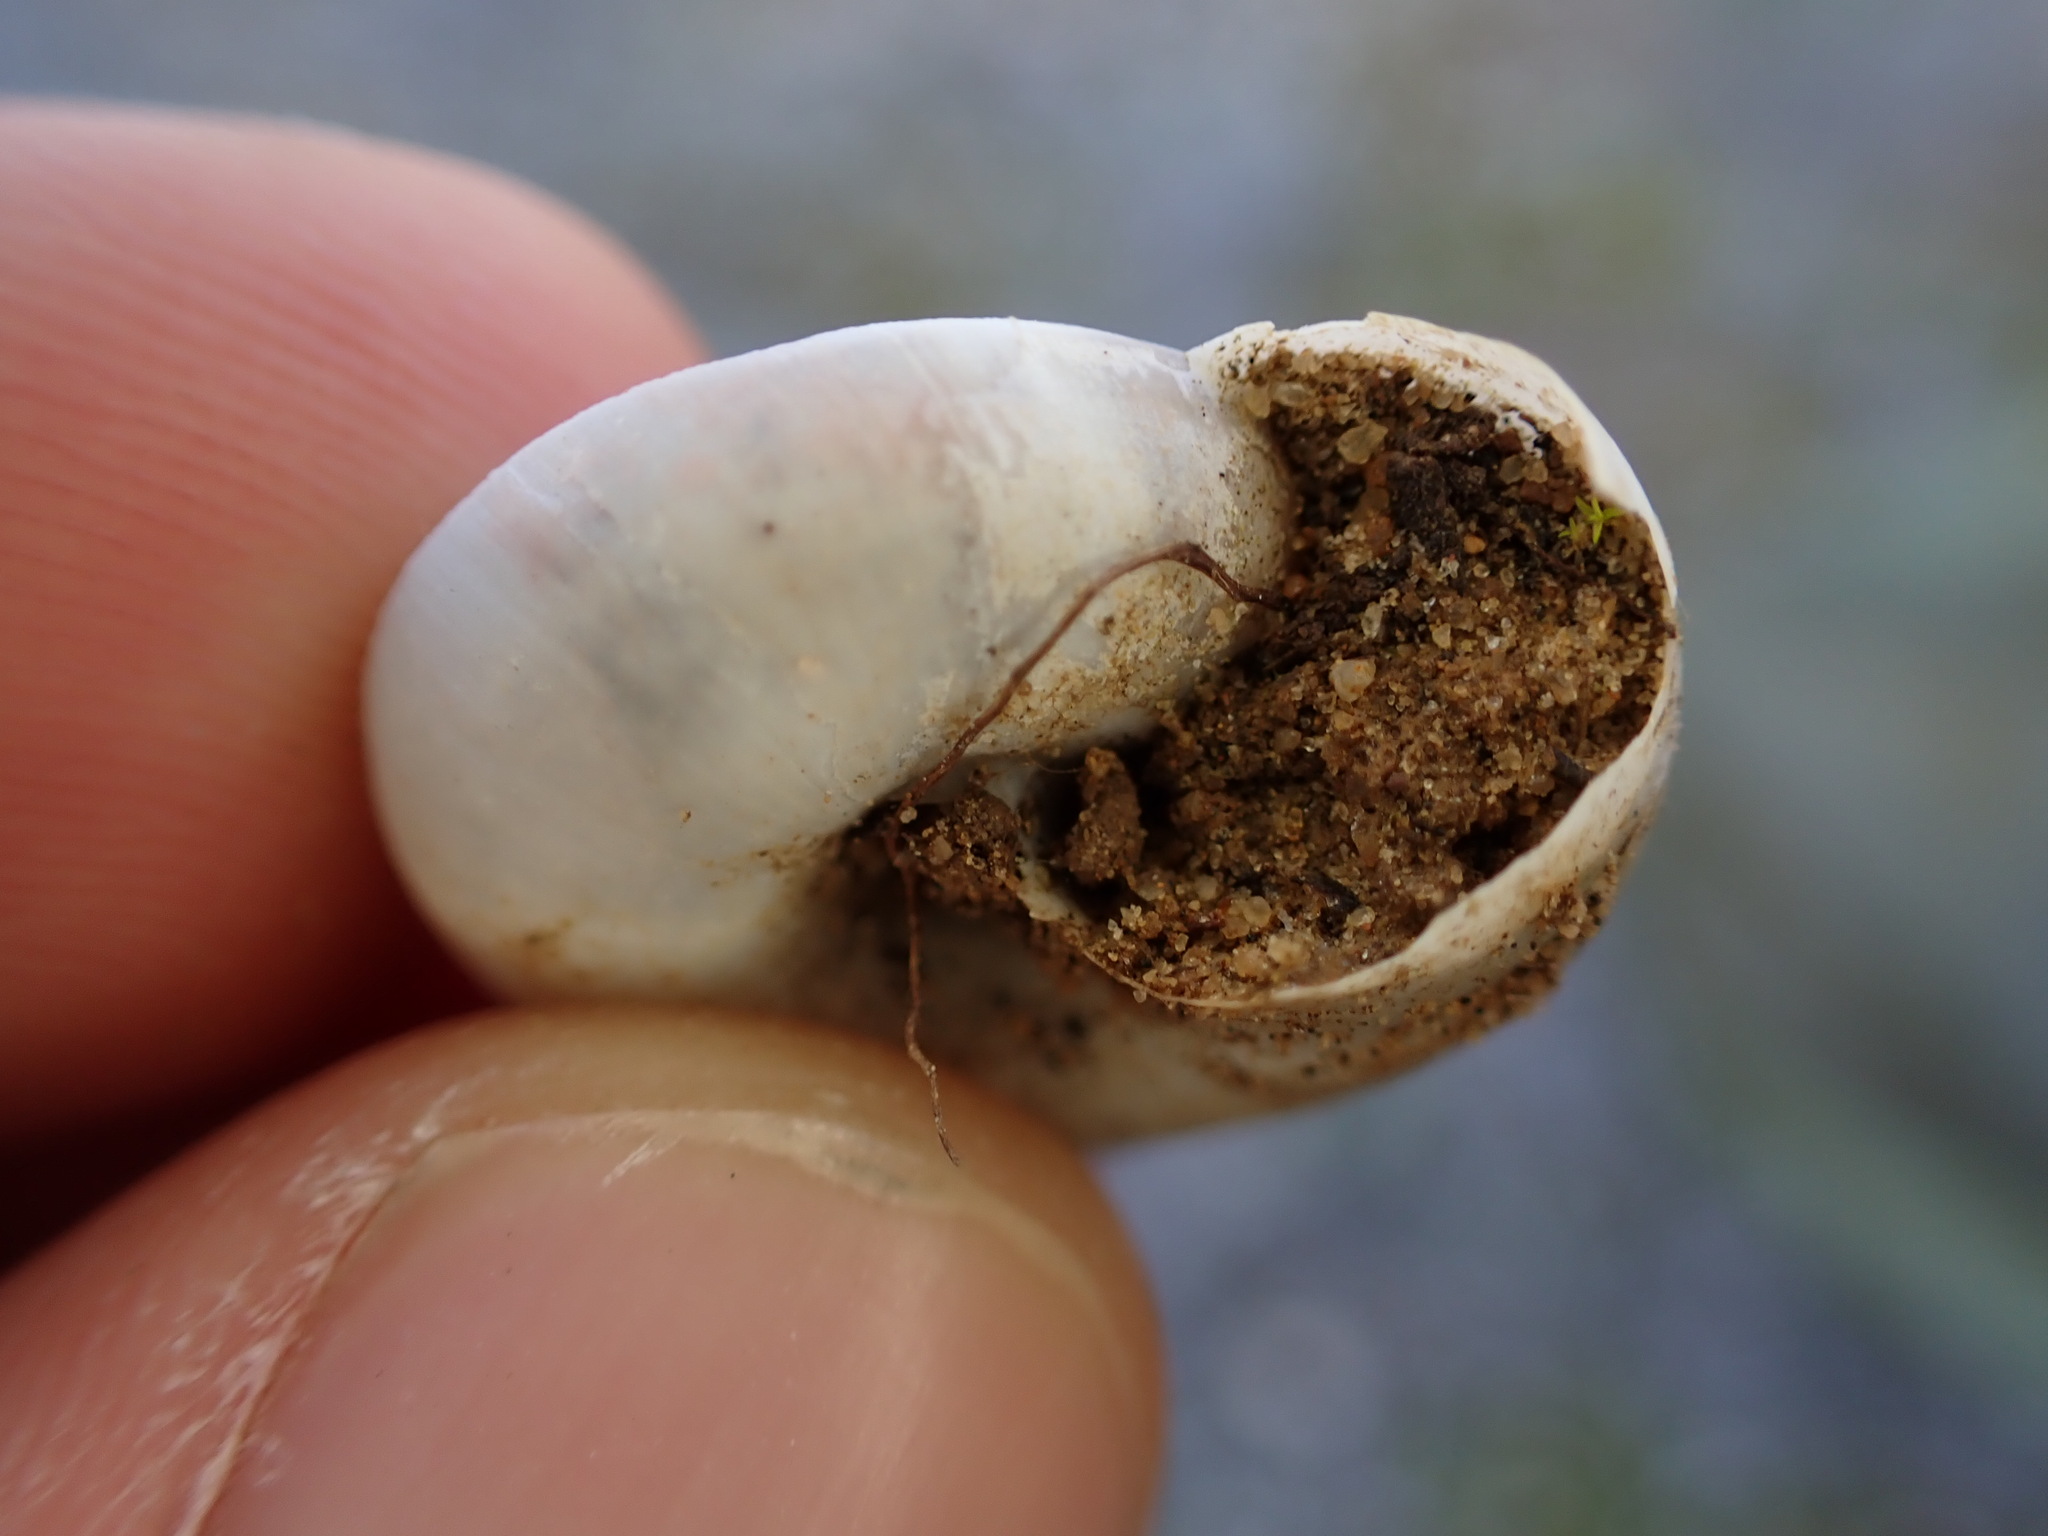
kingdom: Animalia
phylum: Mollusca
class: Gastropoda
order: Stylommatophora
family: Zonitidae
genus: Zonites
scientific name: Zonites algirus
